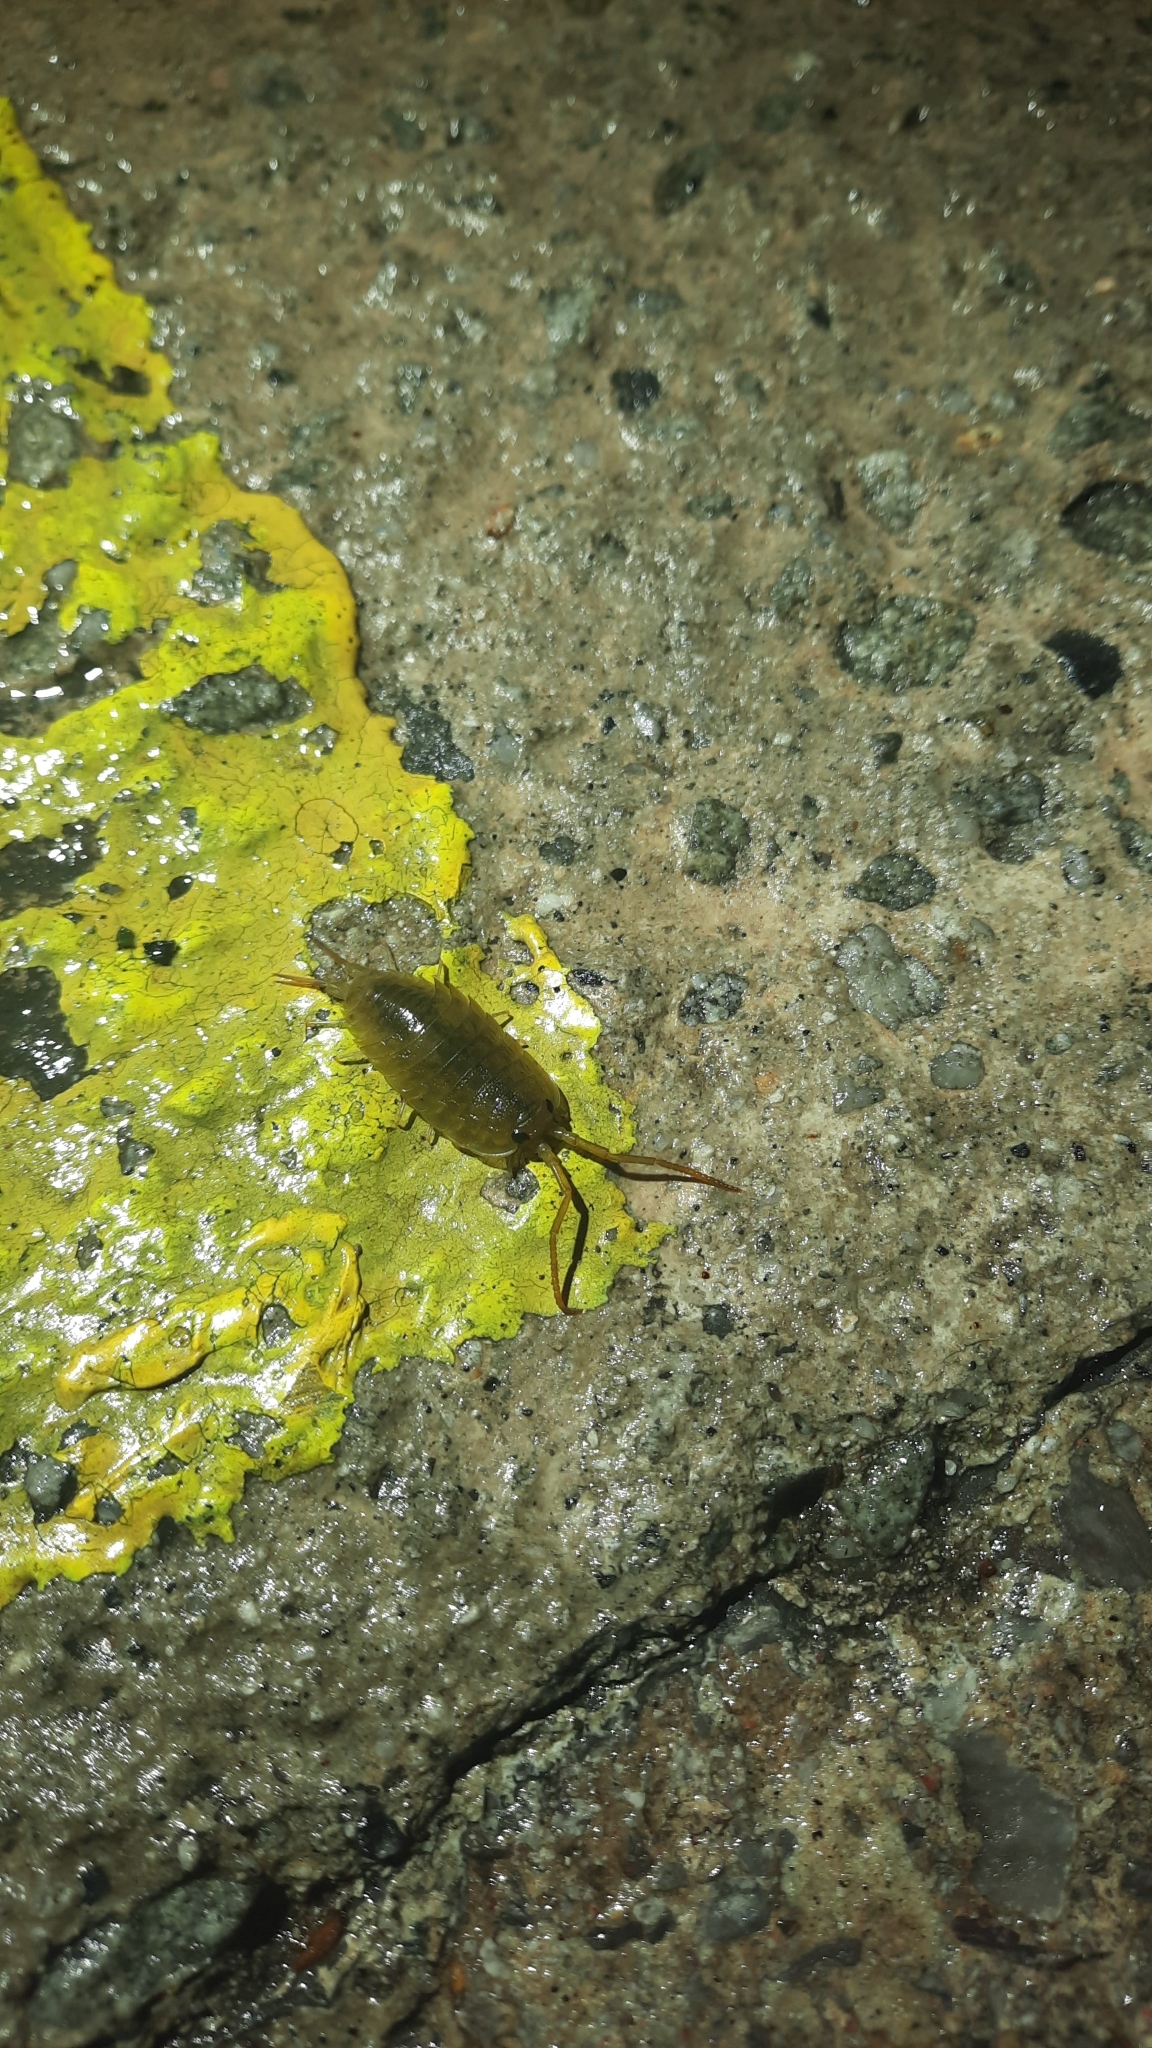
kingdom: Animalia
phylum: Arthropoda
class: Malacostraca
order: Isopoda
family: Ligiidae
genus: Ligia
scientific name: Ligia oceanica
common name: Sea slater
